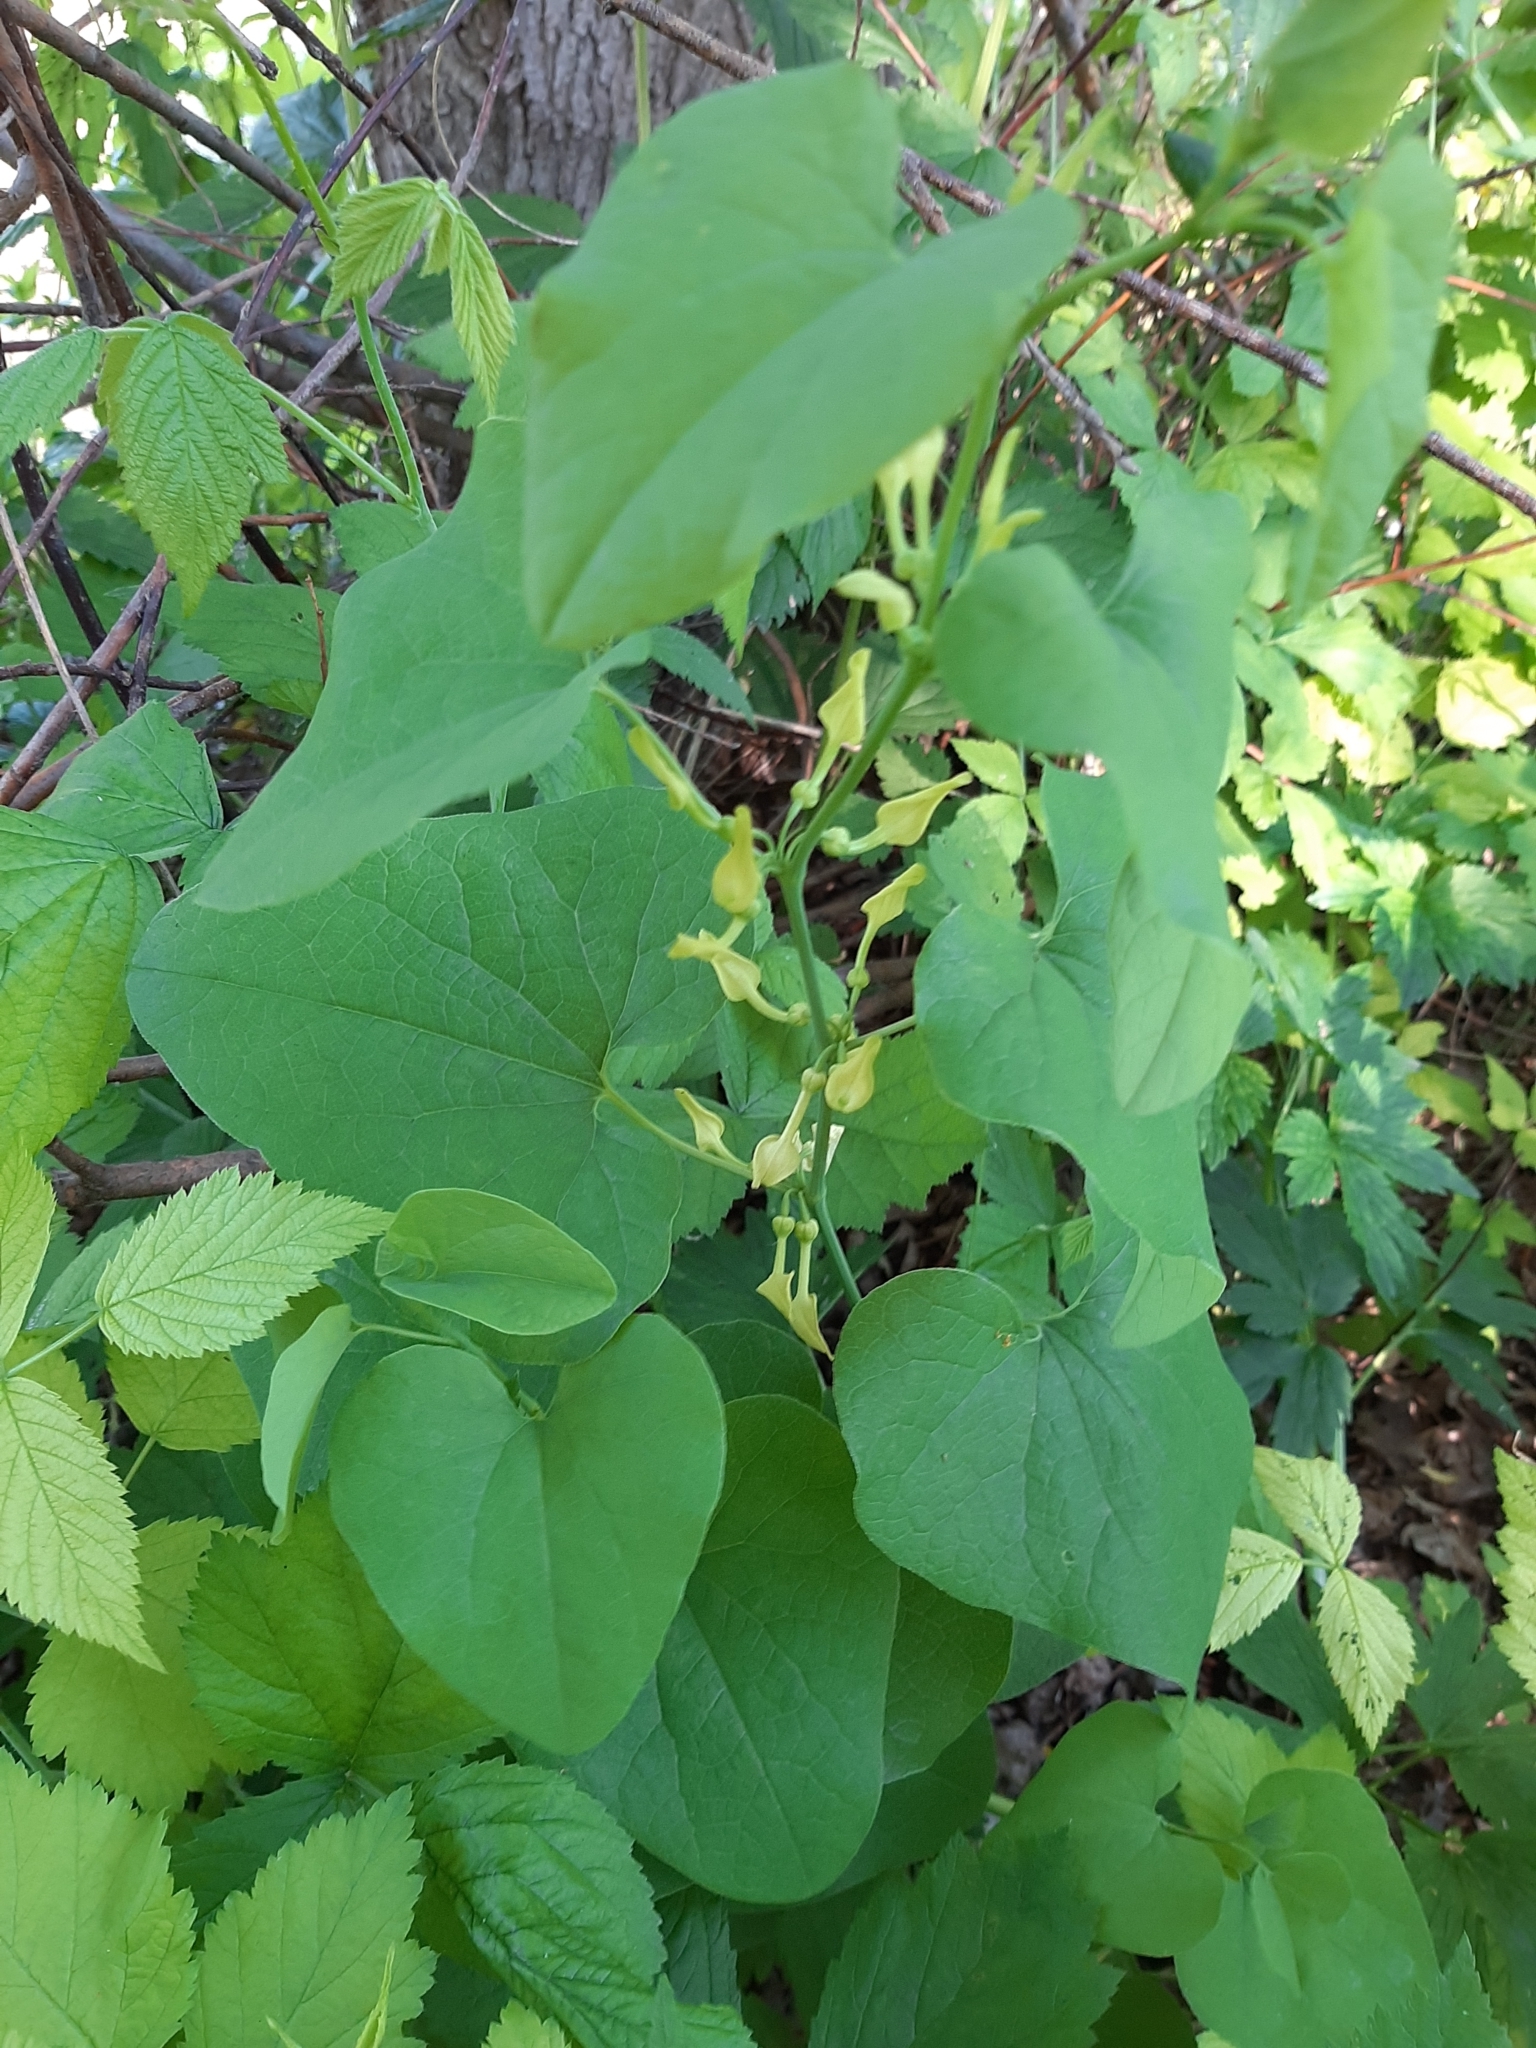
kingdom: Plantae
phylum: Tracheophyta
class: Magnoliopsida
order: Piperales
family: Aristolochiaceae
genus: Aristolochia
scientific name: Aristolochia clematitis
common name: Birthwort
